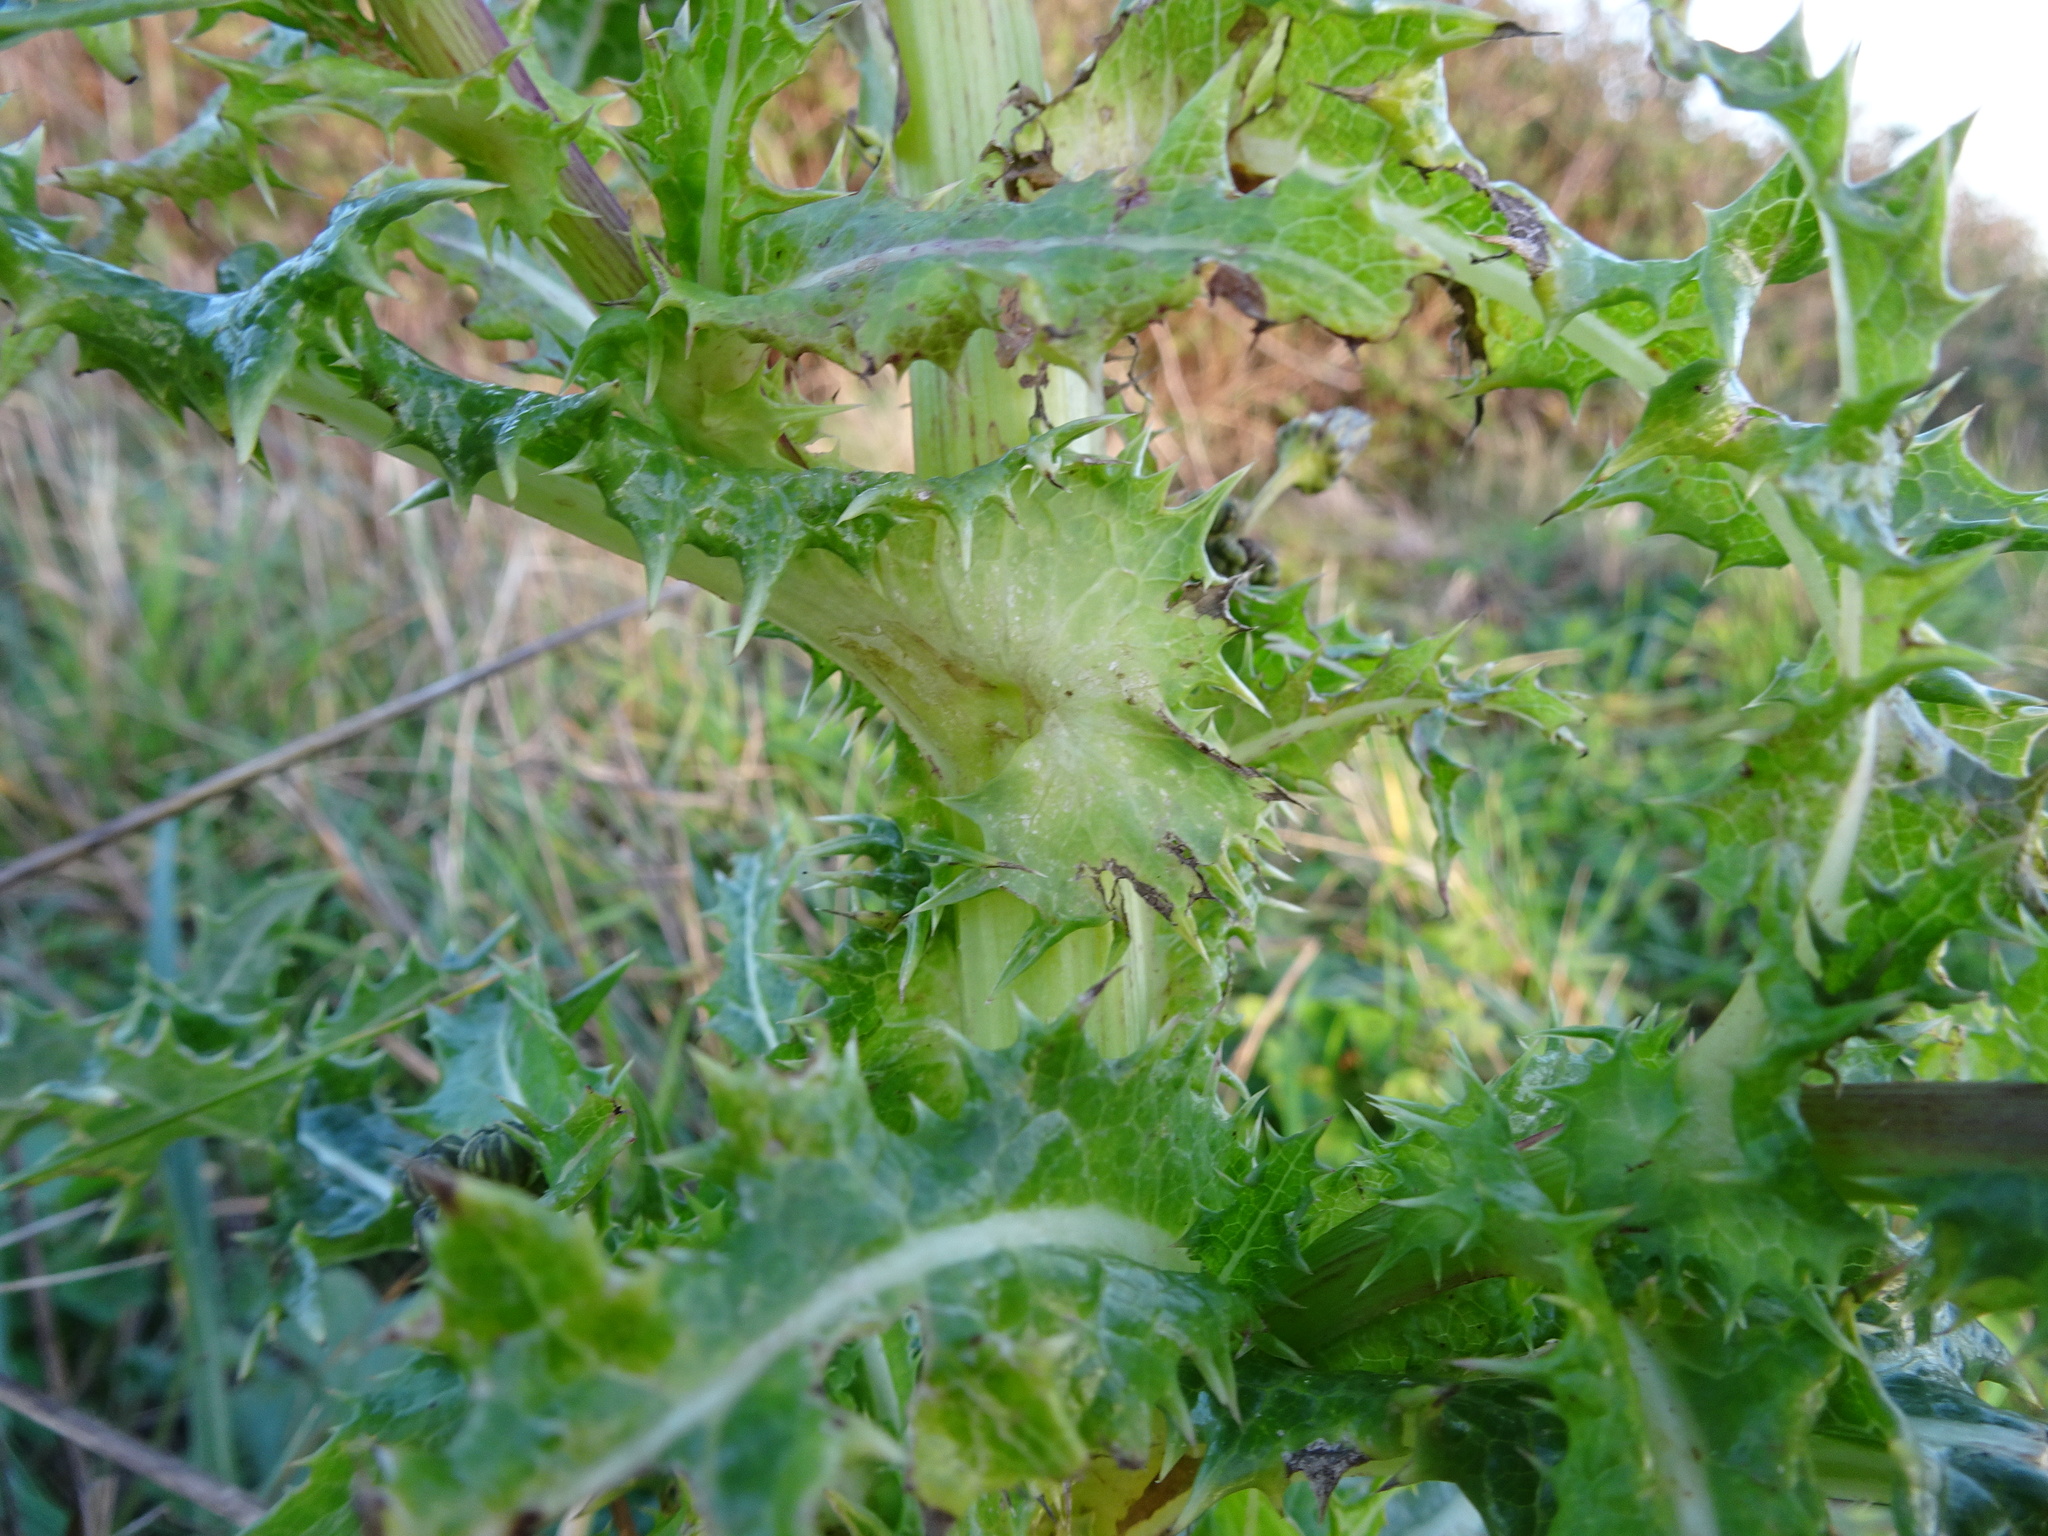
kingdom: Plantae
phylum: Tracheophyta
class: Magnoliopsida
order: Asterales
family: Asteraceae
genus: Sonchus
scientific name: Sonchus asper
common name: Prickly sow-thistle
